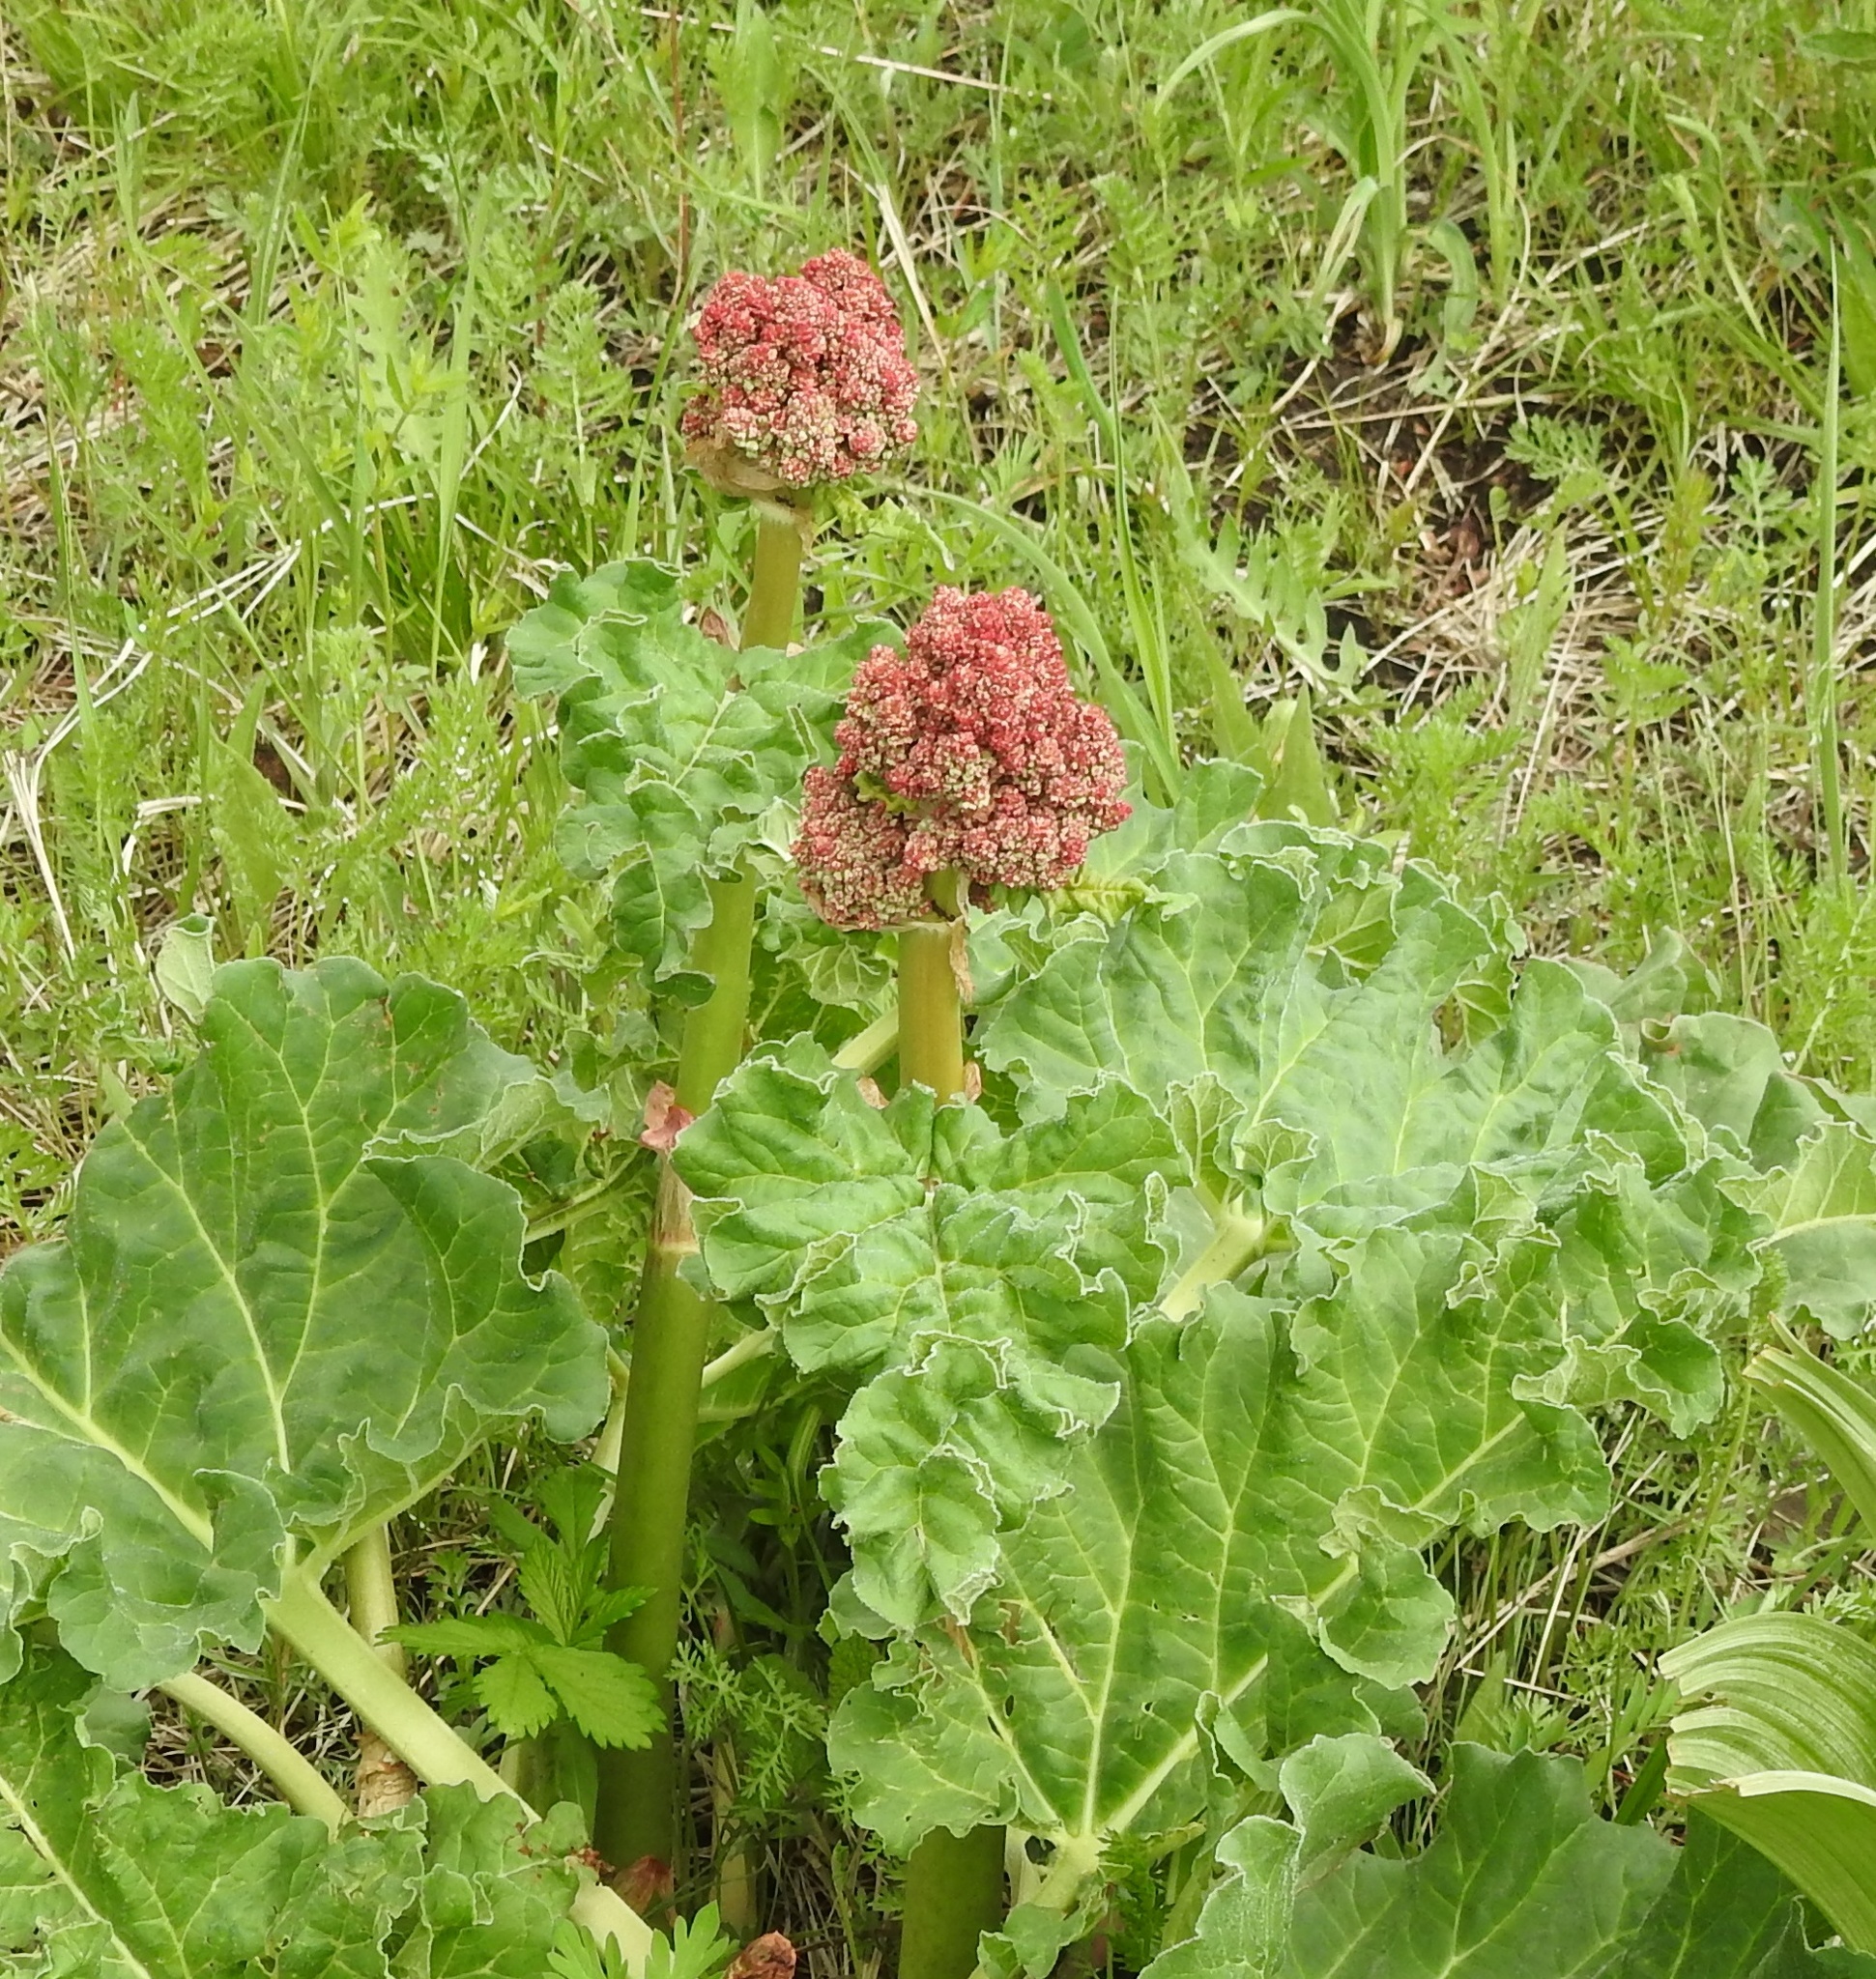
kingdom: Plantae
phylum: Tracheophyta
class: Magnoliopsida
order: Caryophyllales
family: Polygonaceae
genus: Rheum
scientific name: Rheum rhabarbarum
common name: Garden rhubarb
